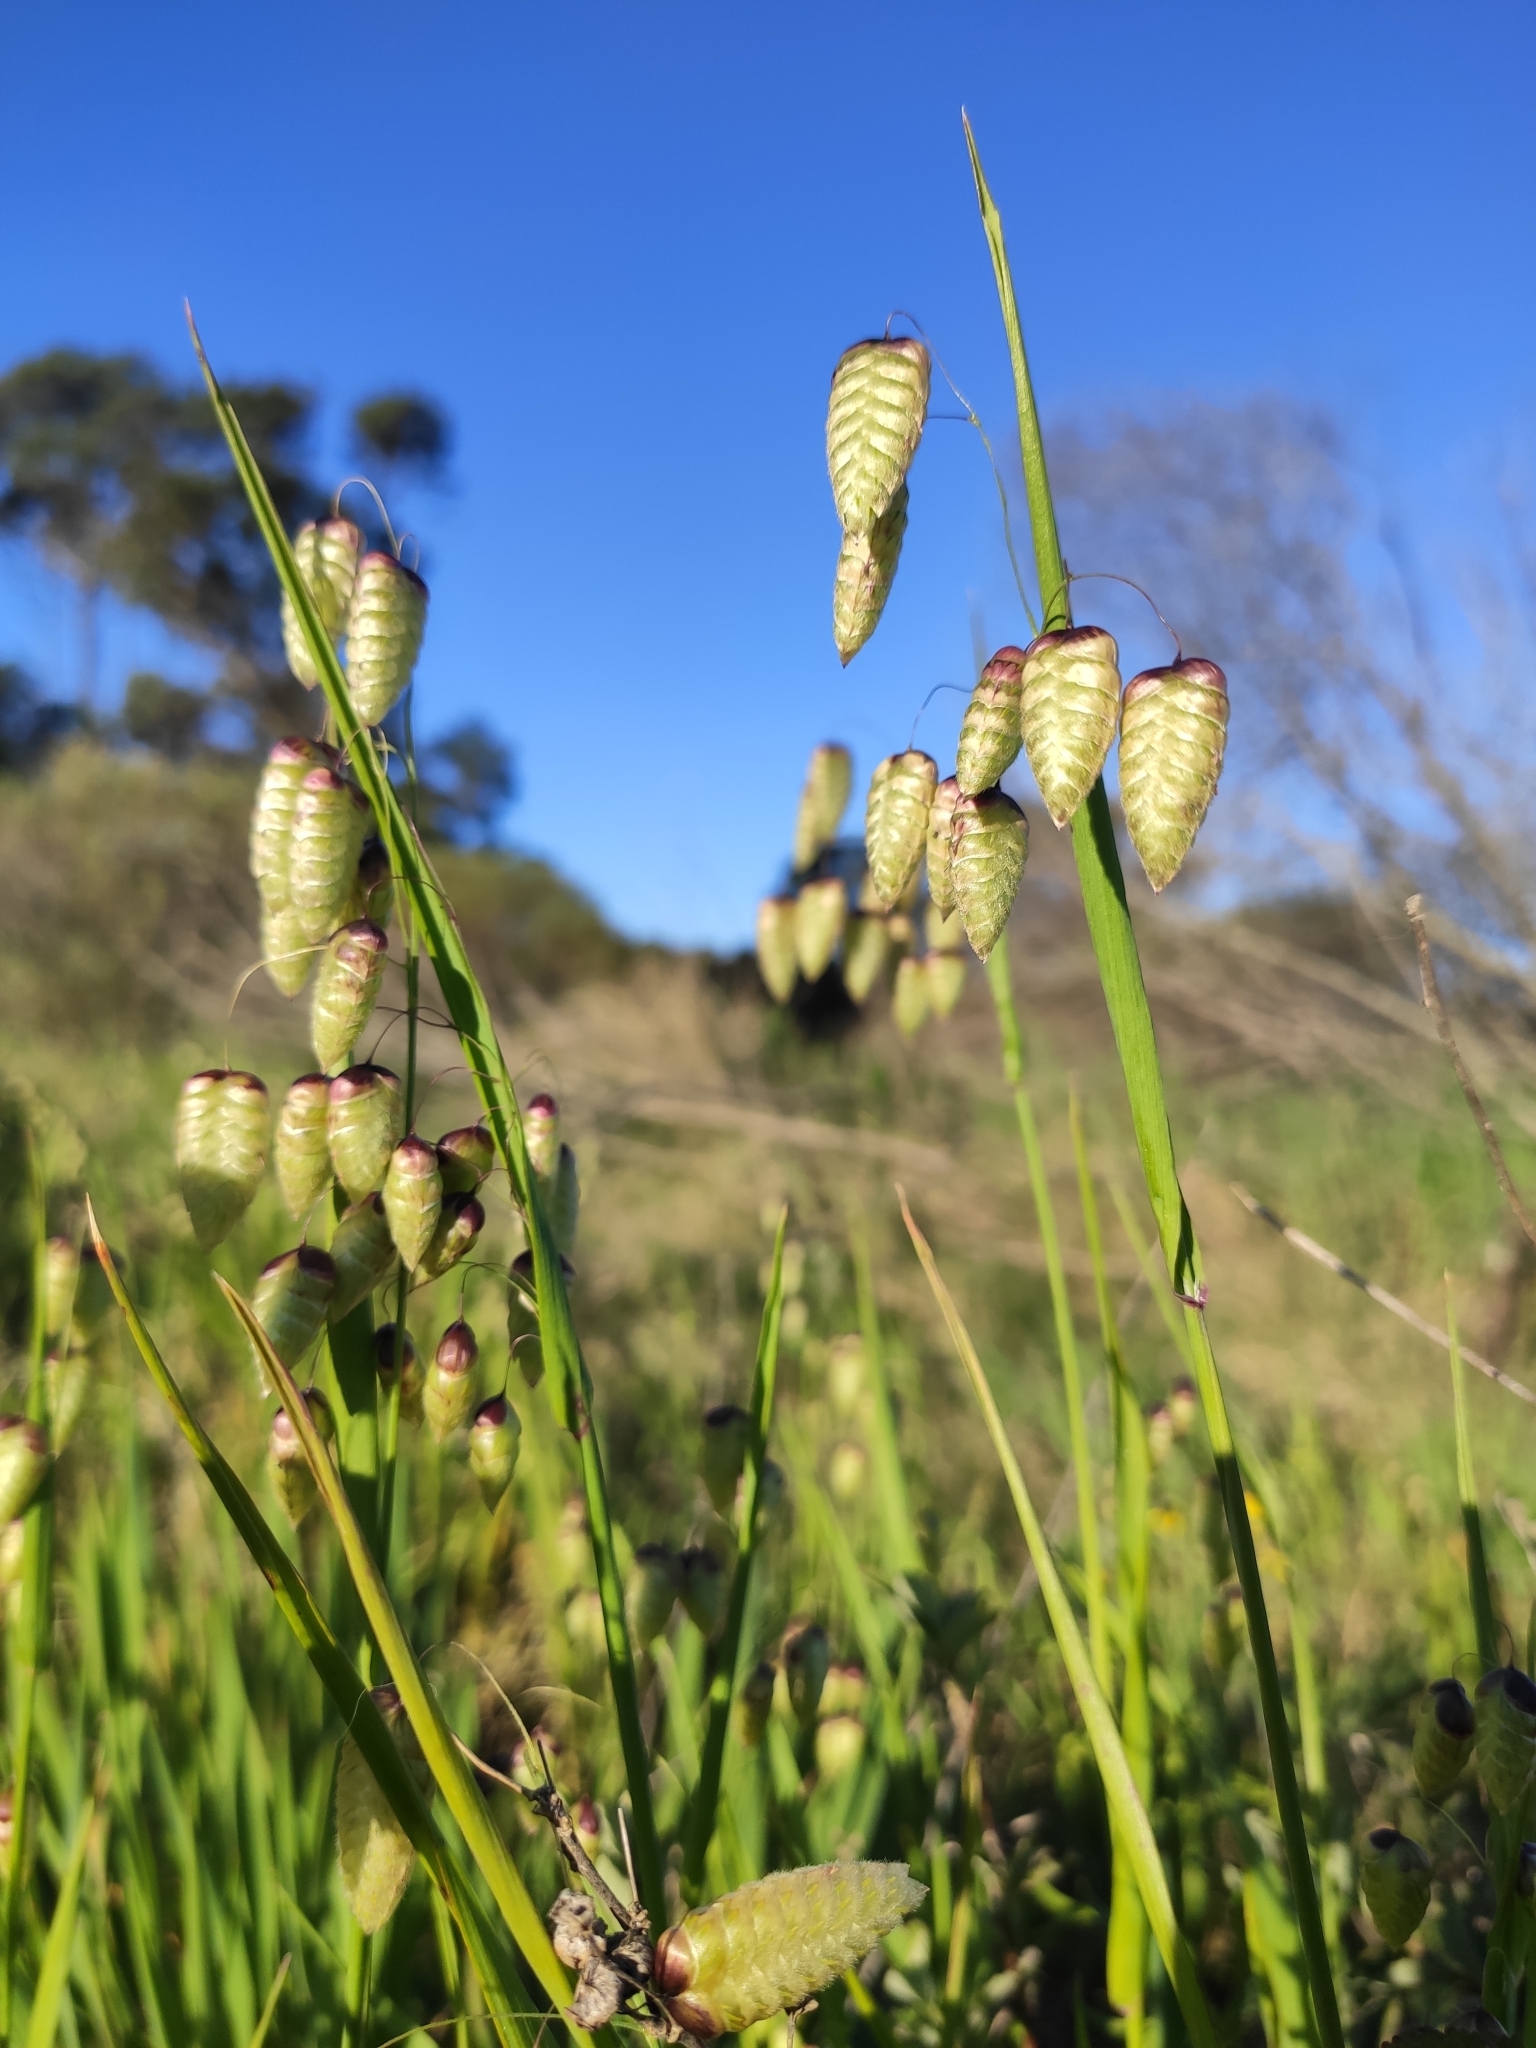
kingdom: Plantae
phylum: Tracheophyta
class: Liliopsida
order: Poales
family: Poaceae
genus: Briza
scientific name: Briza maxima
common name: Big quakinggrass
